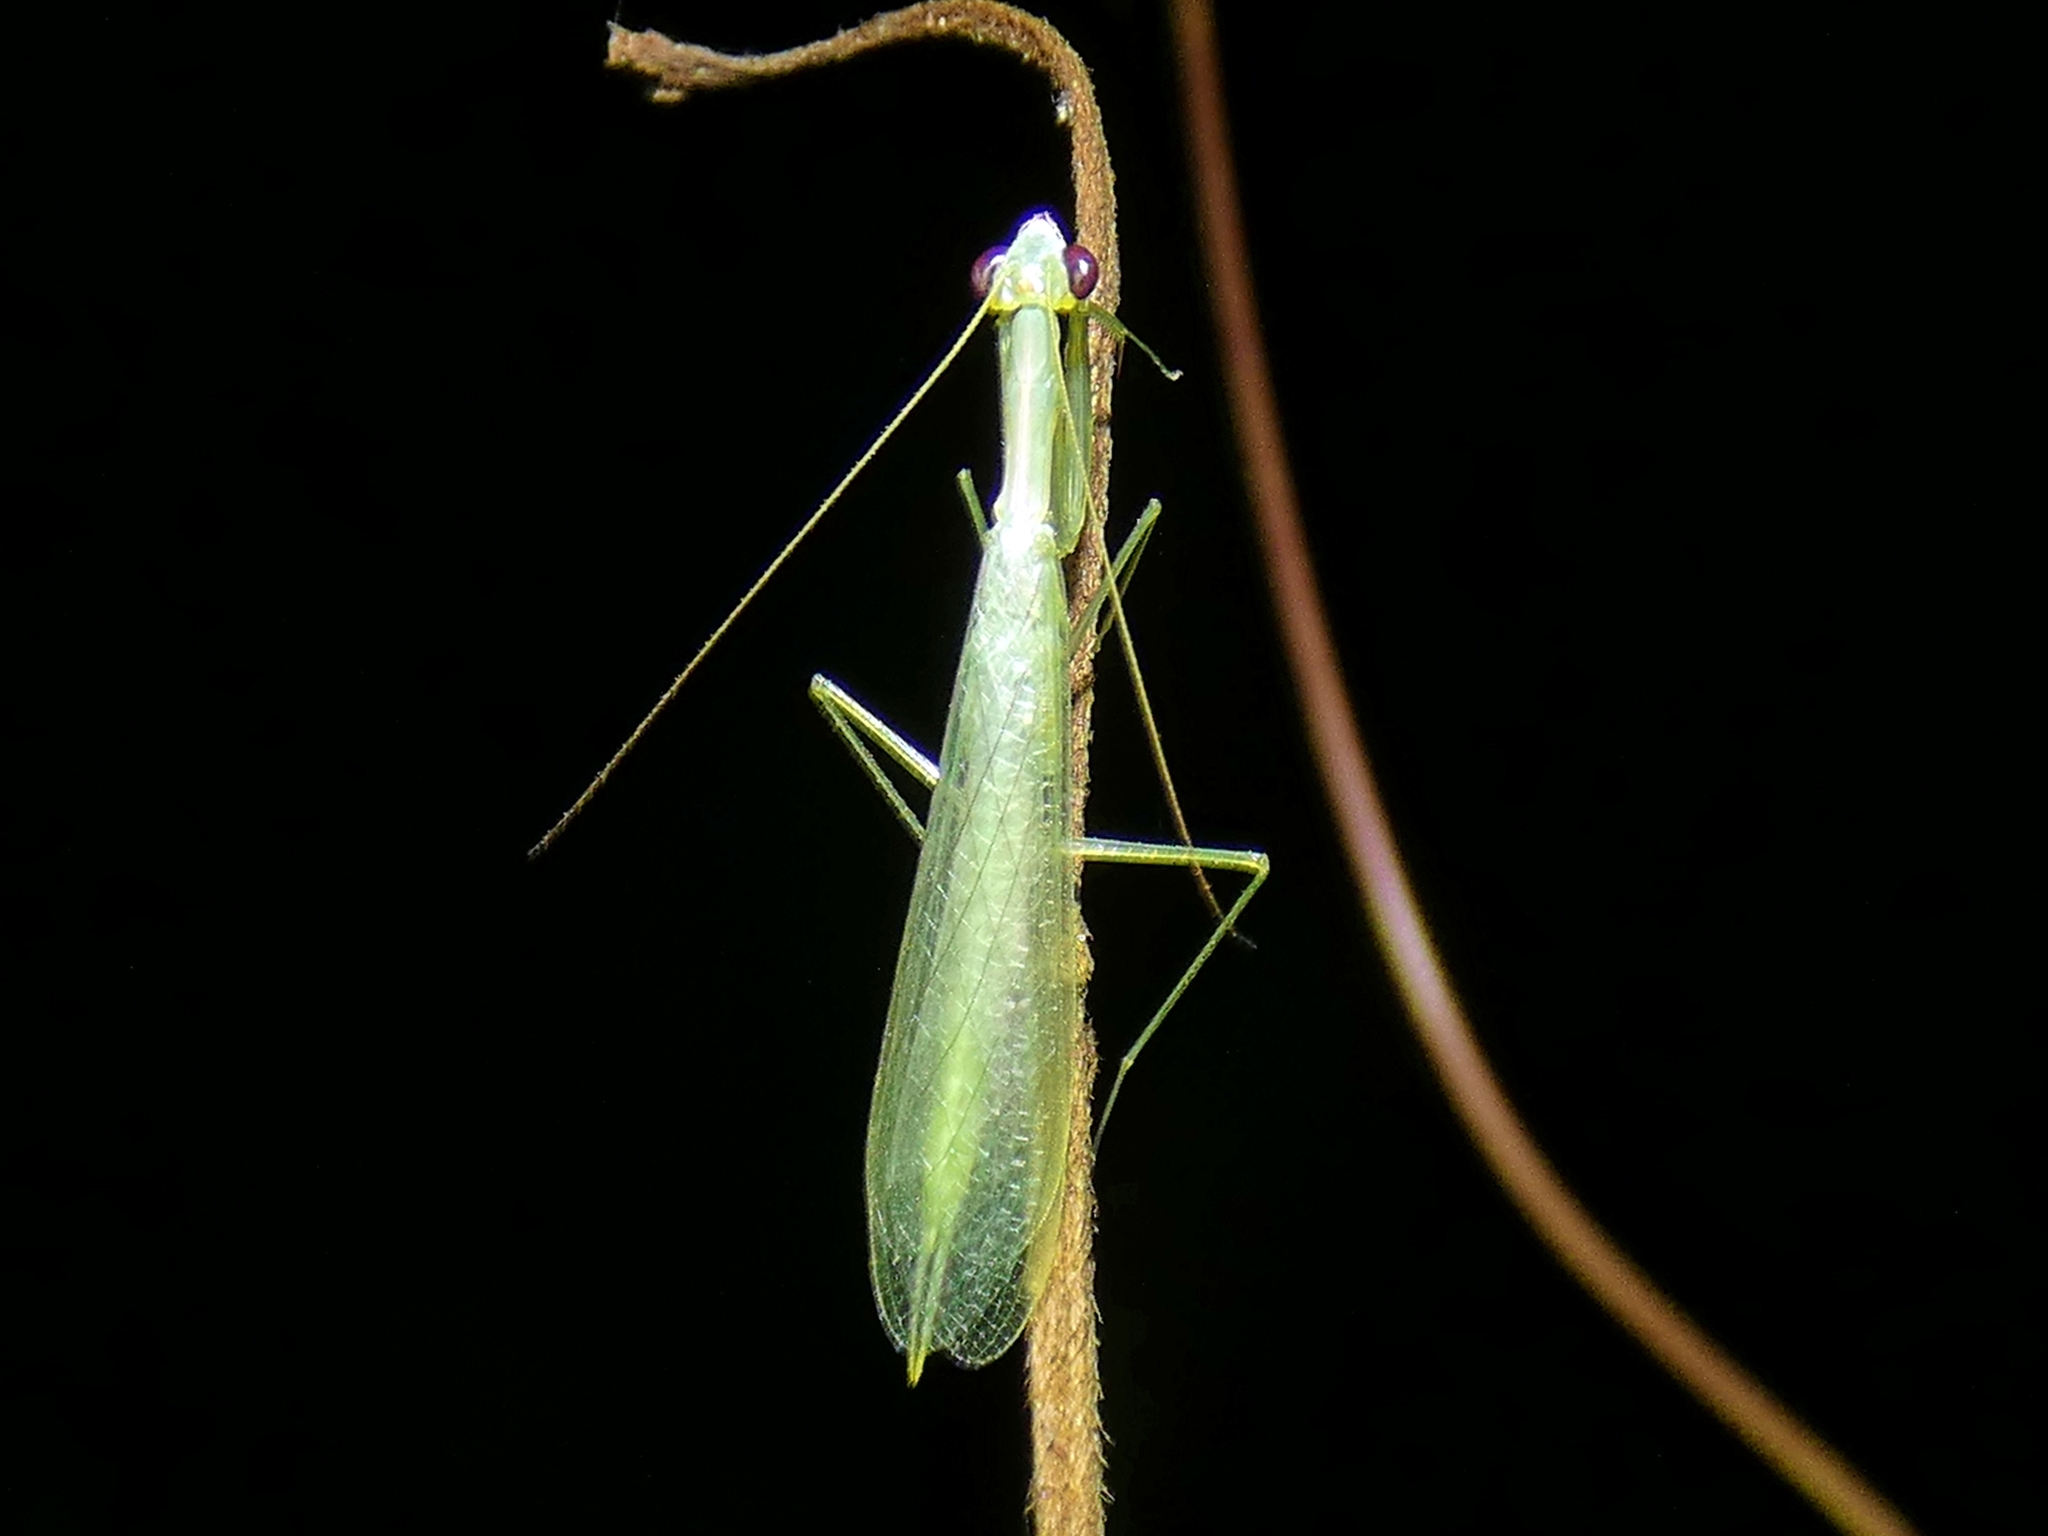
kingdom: Animalia
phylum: Arthropoda
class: Insecta
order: Mantodea
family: Nanomantidae
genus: Kongobatha
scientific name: Kongobatha diademata
